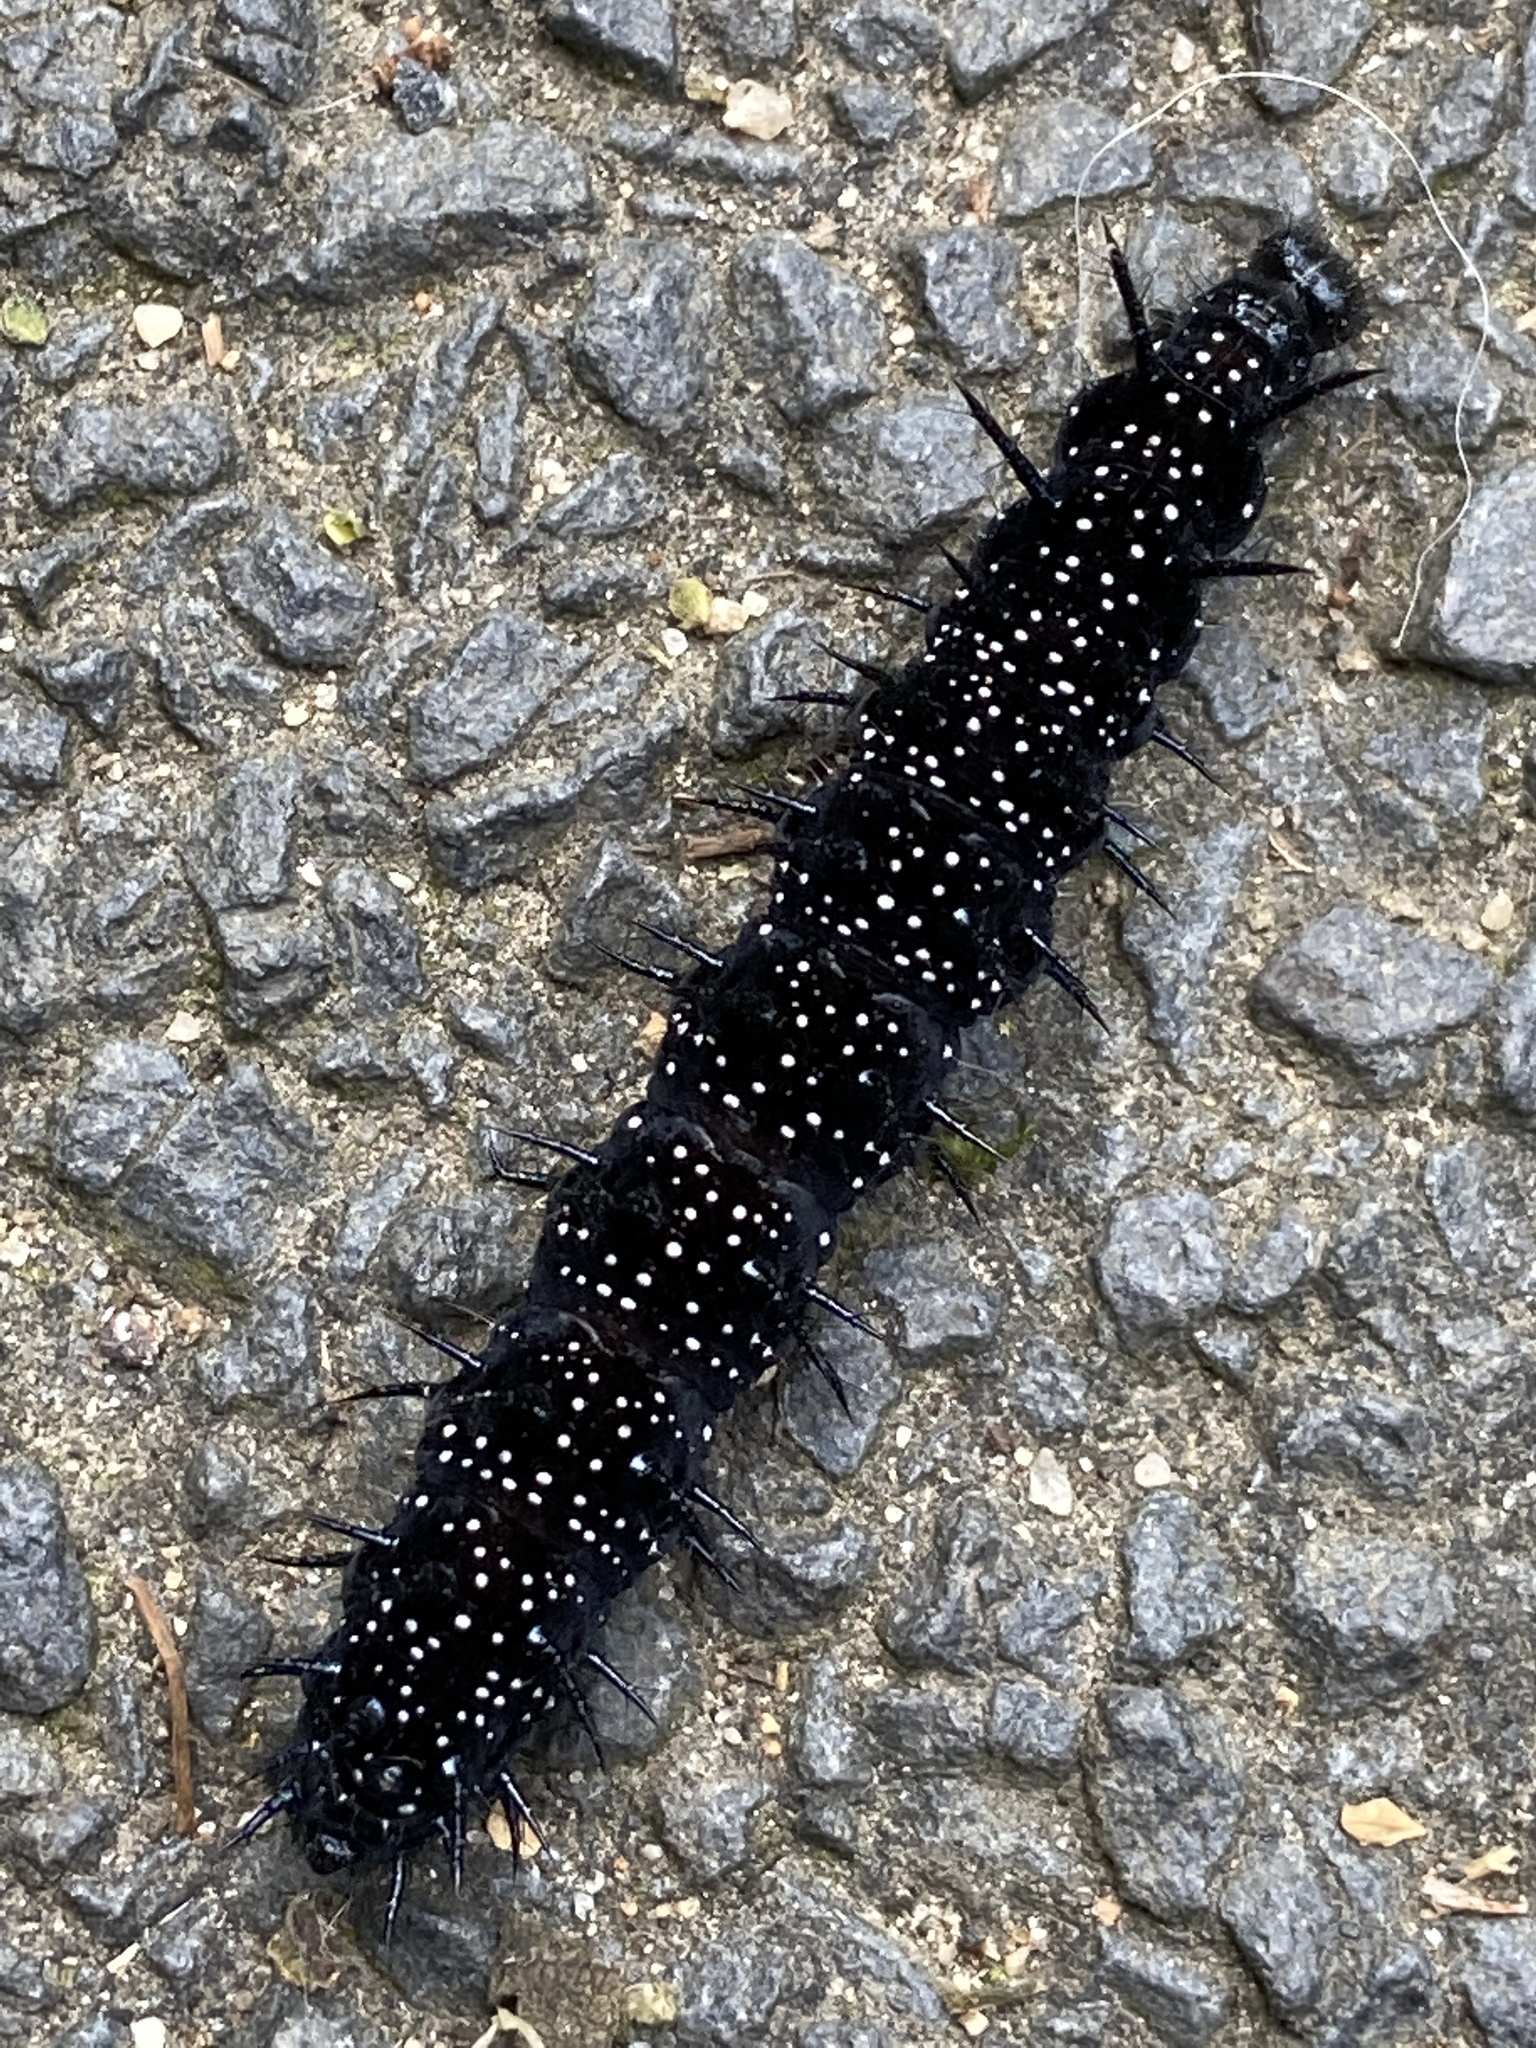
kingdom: Animalia
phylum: Arthropoda
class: Insecta
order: Lepidoptera
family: Nymphalidae
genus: Aglais
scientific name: Aglais io
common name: Peacock
